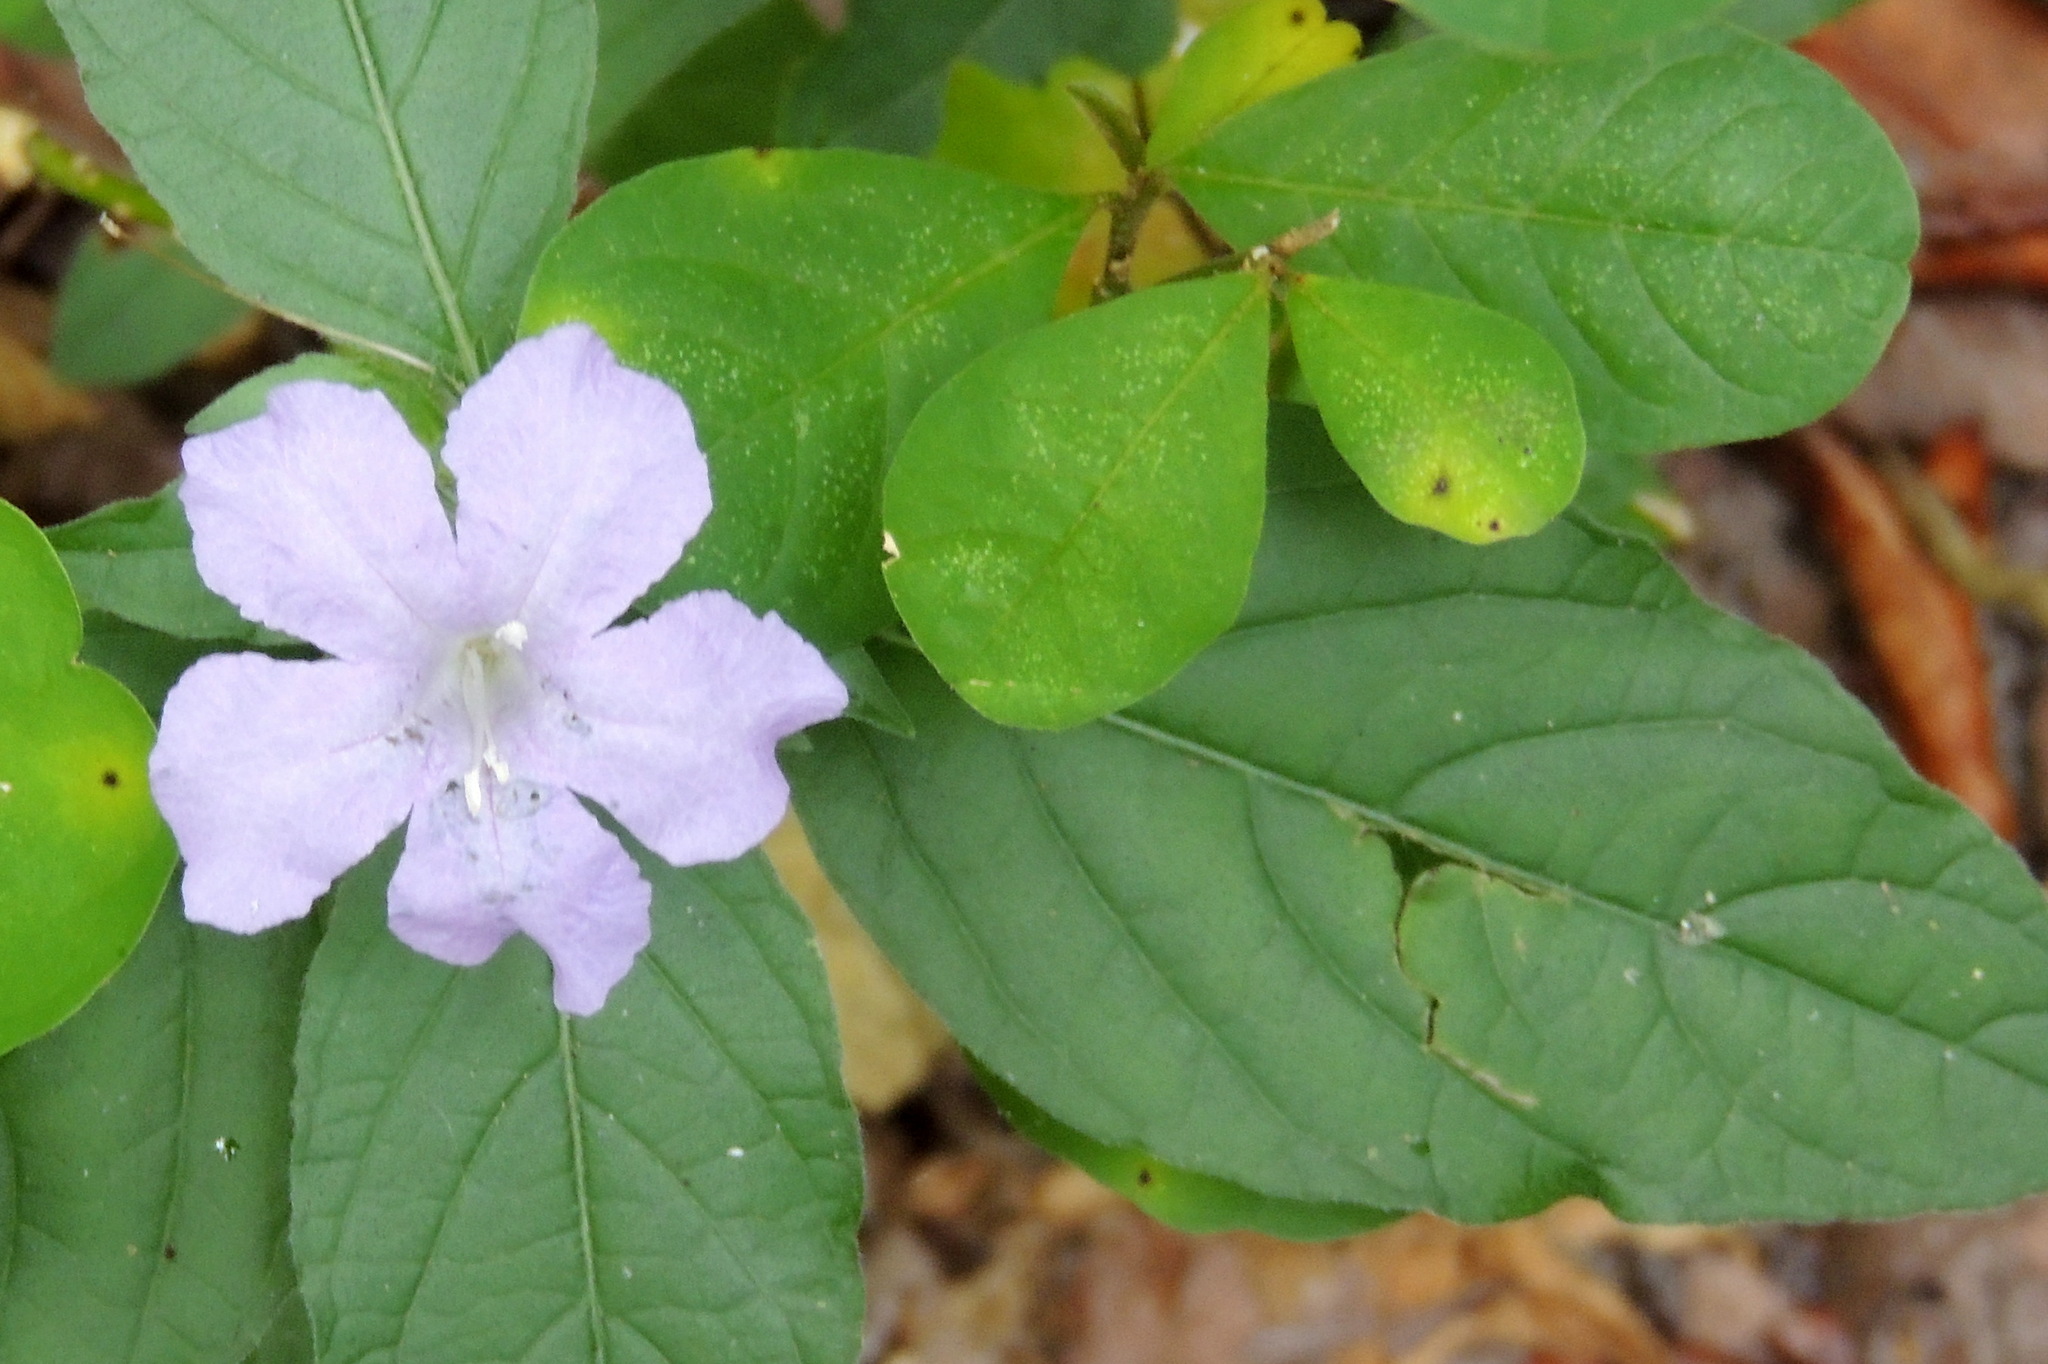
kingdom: Plantae
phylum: Tracheophyta
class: Magnoliopsida
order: Lamiales
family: Acanthaceae
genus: Ruellia
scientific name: Ruellia caroliniensis
